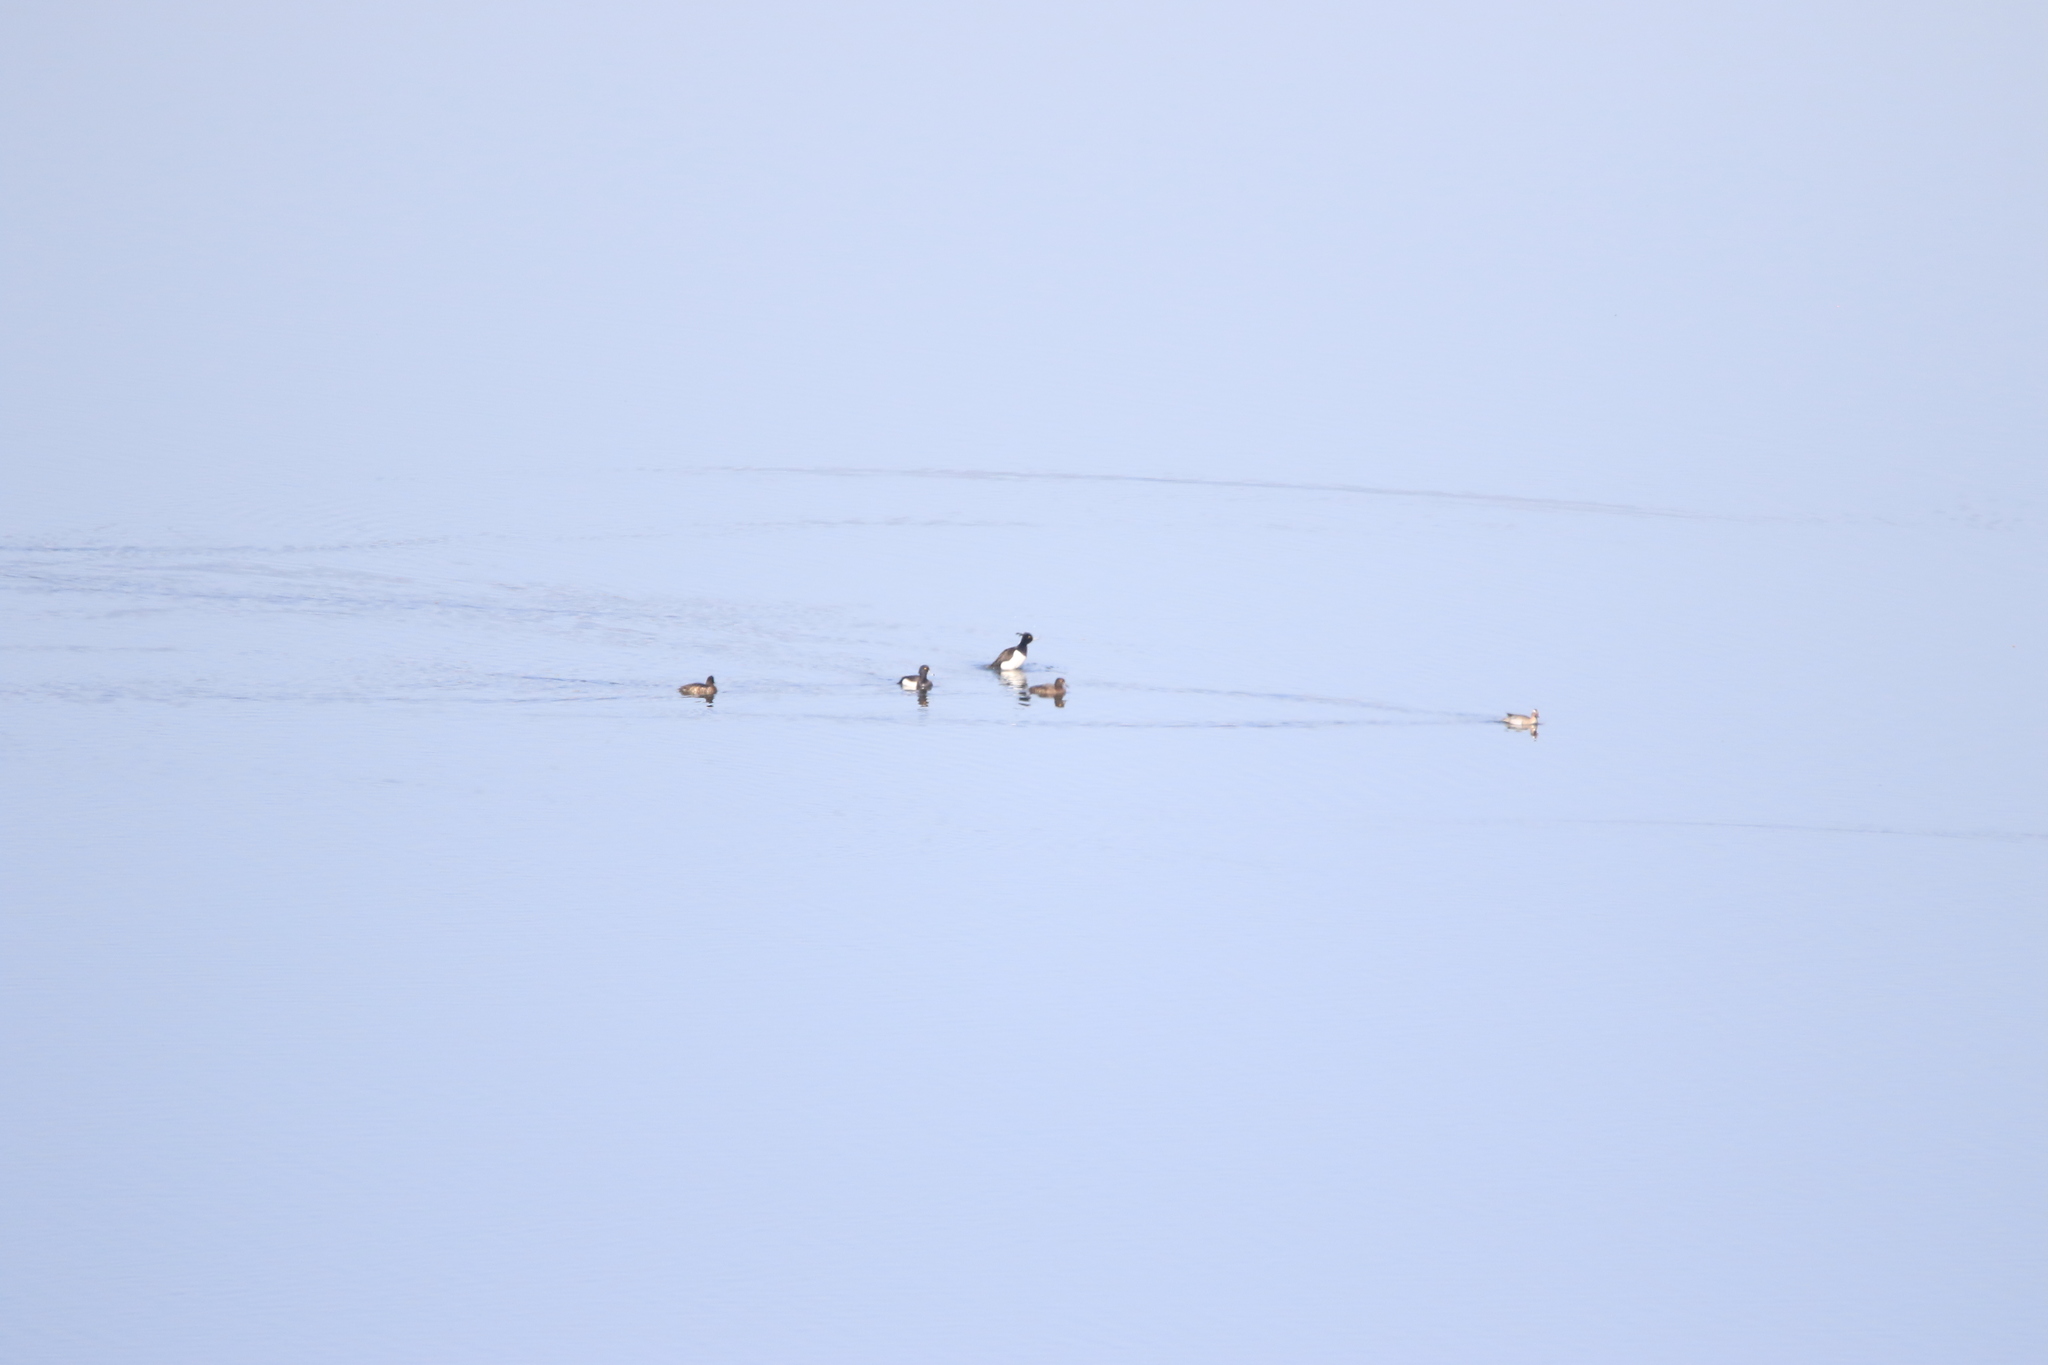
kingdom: Animalia
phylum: Chordata
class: Aves
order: Anseriformes
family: Anatidae
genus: Aythya
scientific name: Aythya fuligula
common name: Tufted duck
